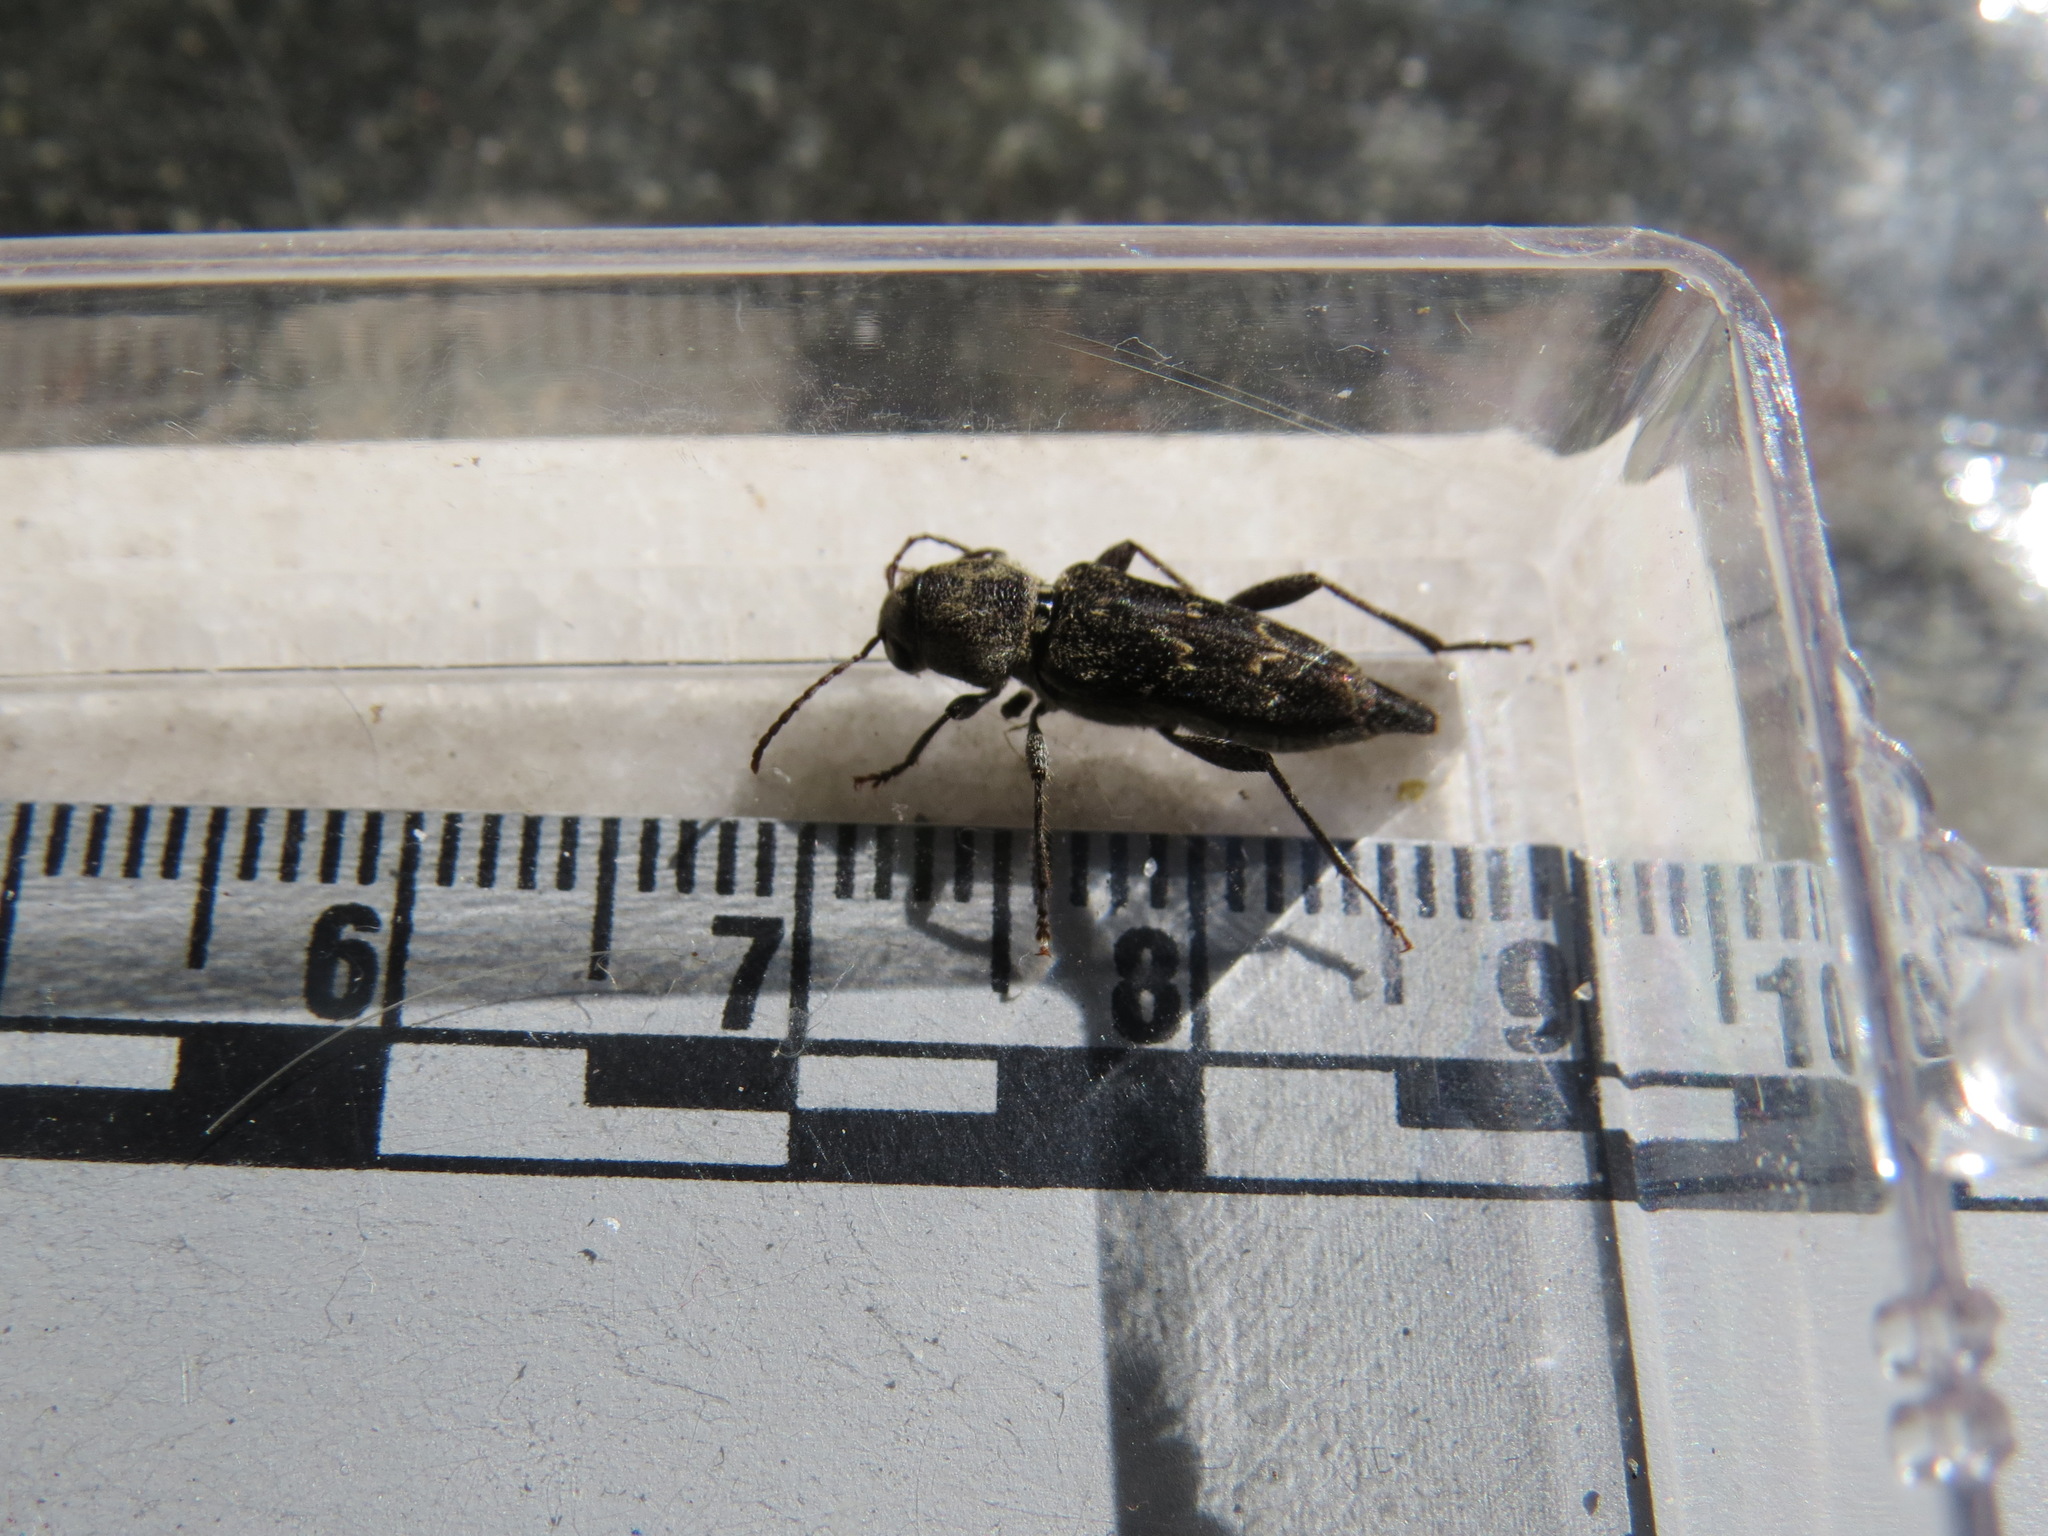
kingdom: Animalia
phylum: Arthropoda
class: Insecta
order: Coleoptera
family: Cerambycidae
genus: Xylotrechus
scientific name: Xylotrechus nauticus
